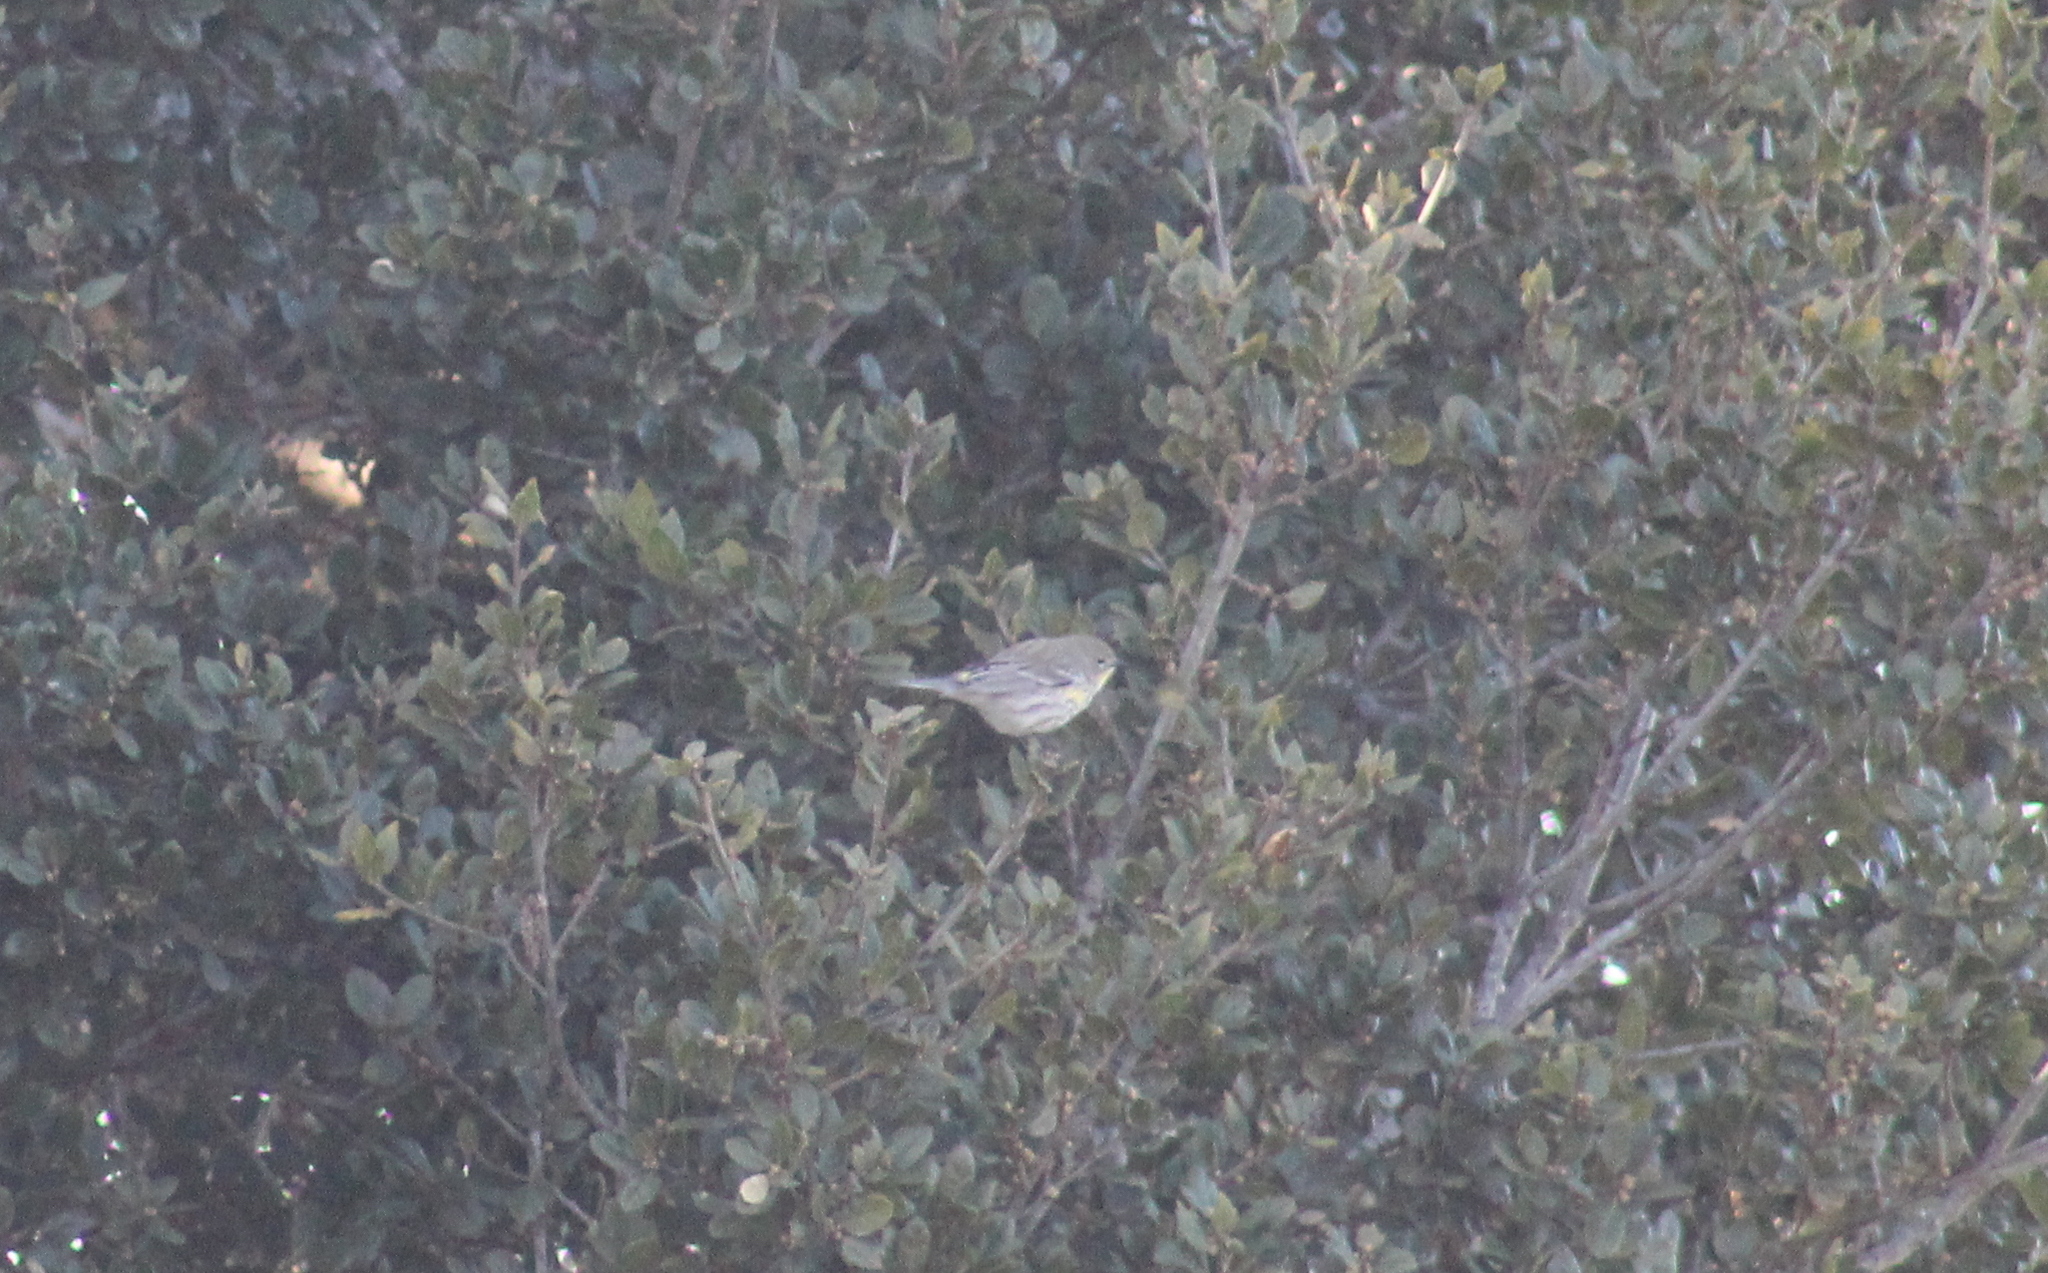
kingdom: Animalia
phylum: Chordata
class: Aves
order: Passeriformes
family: Parulidae
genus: Setophaga
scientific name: Setophaga coronata
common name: Myrtle warbler
